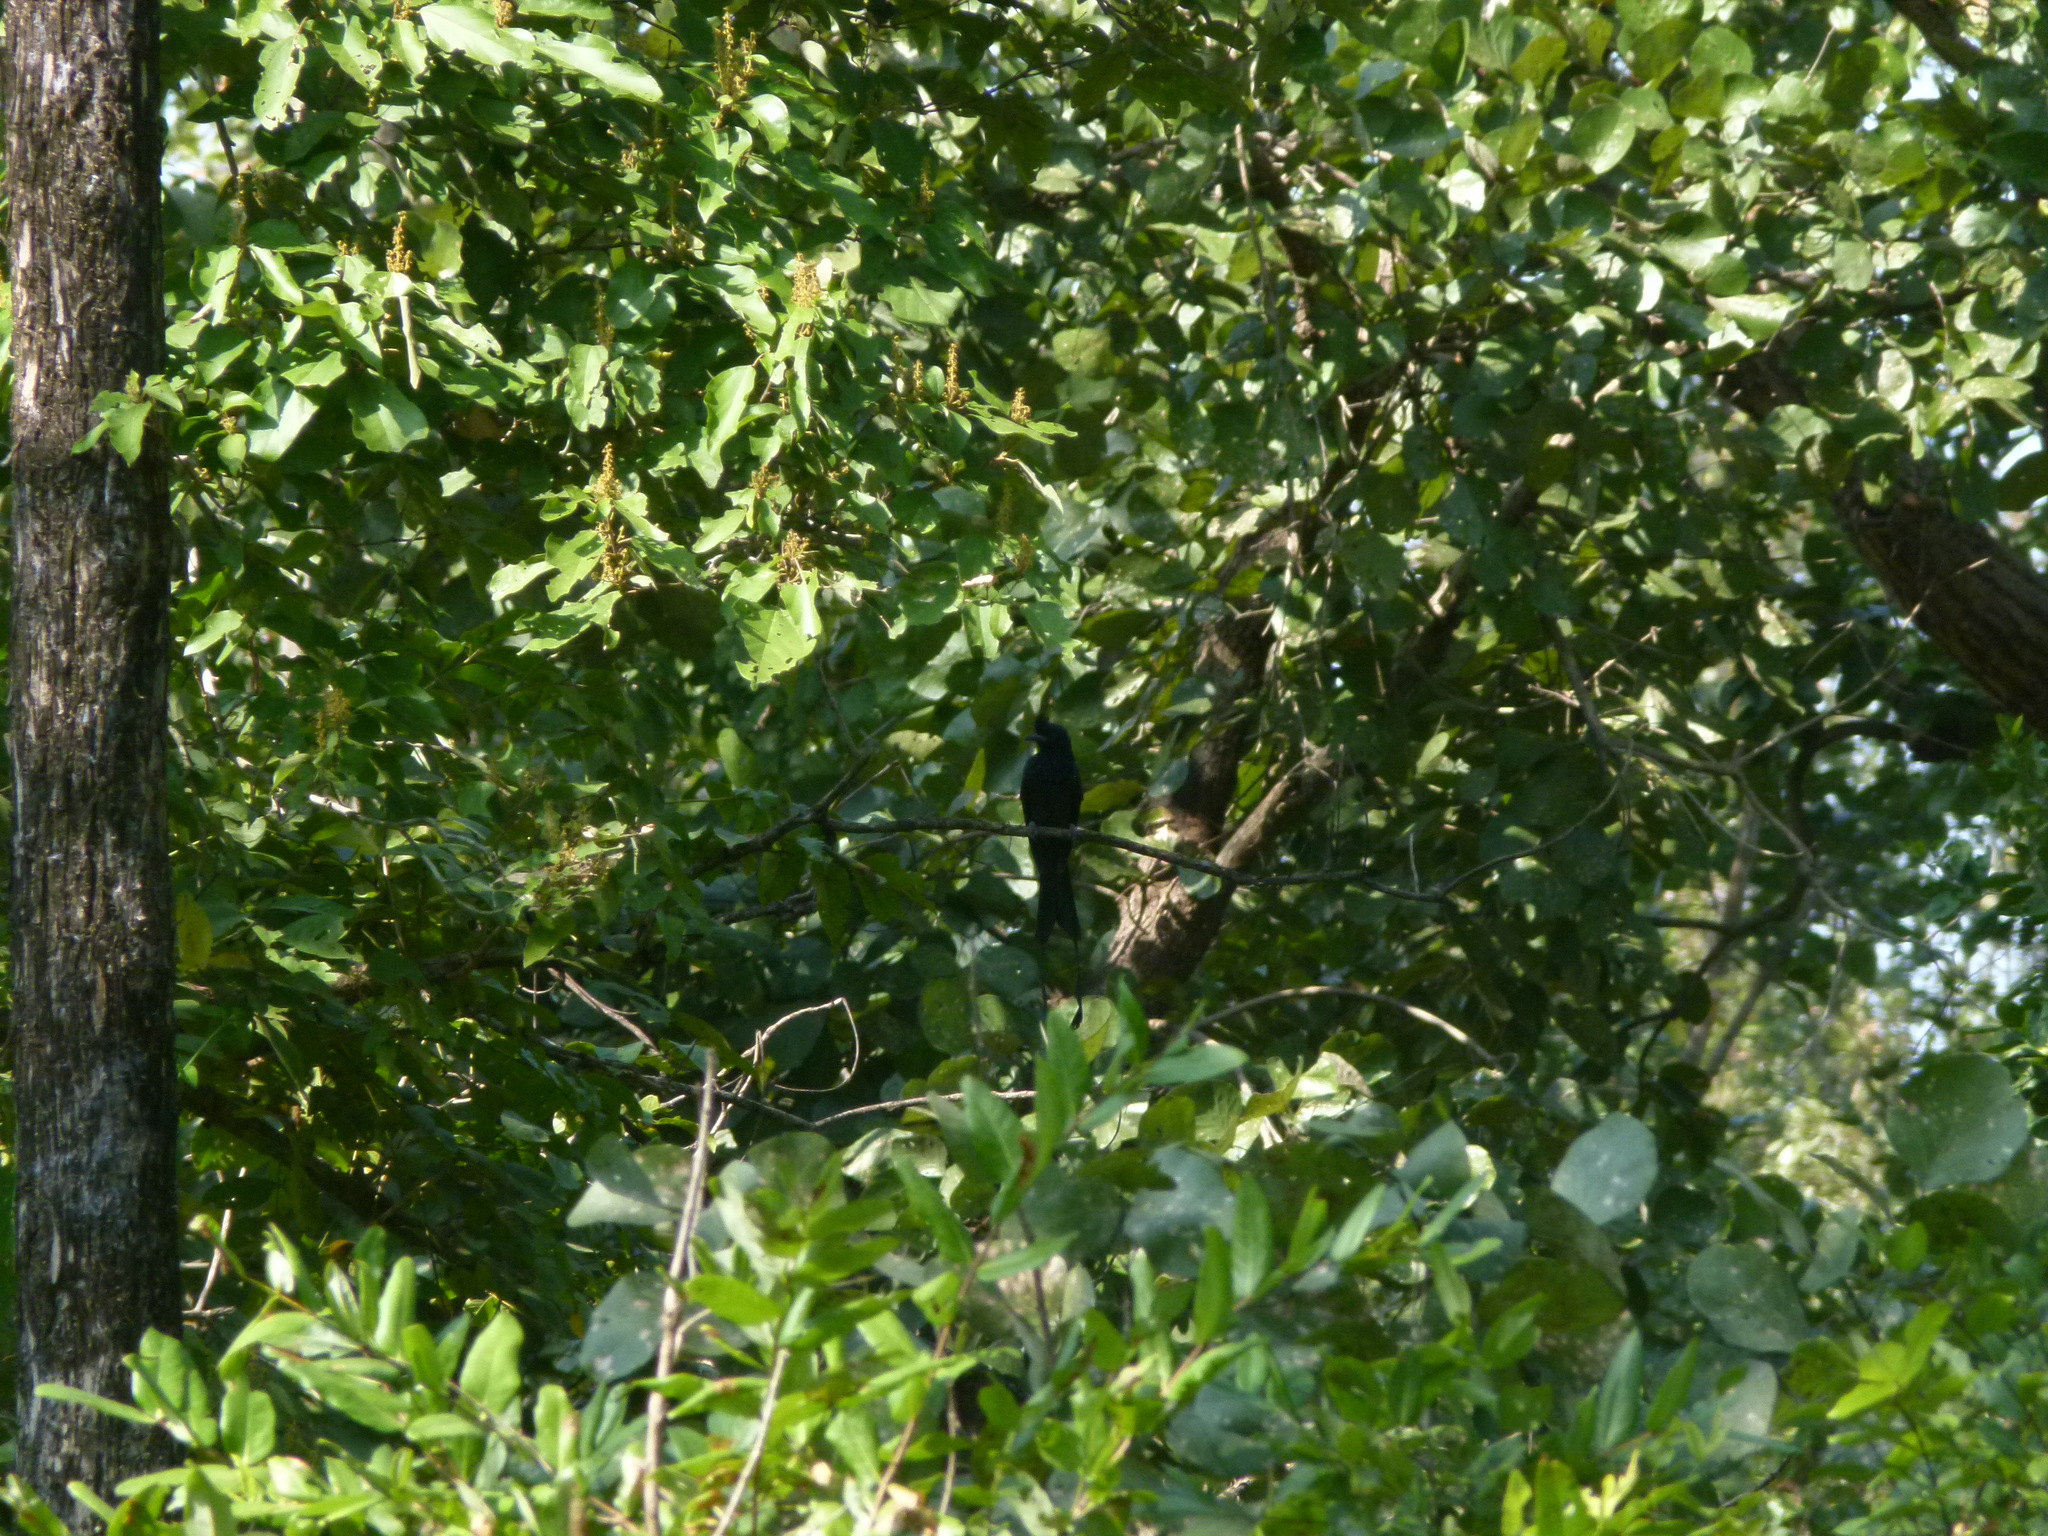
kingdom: Animalia
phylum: Chordata
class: Aves
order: Passeriformes
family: Dicruridae
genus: Dicrurus
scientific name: Dicrurus paradiseus
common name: Greater racket-tailed drongo
